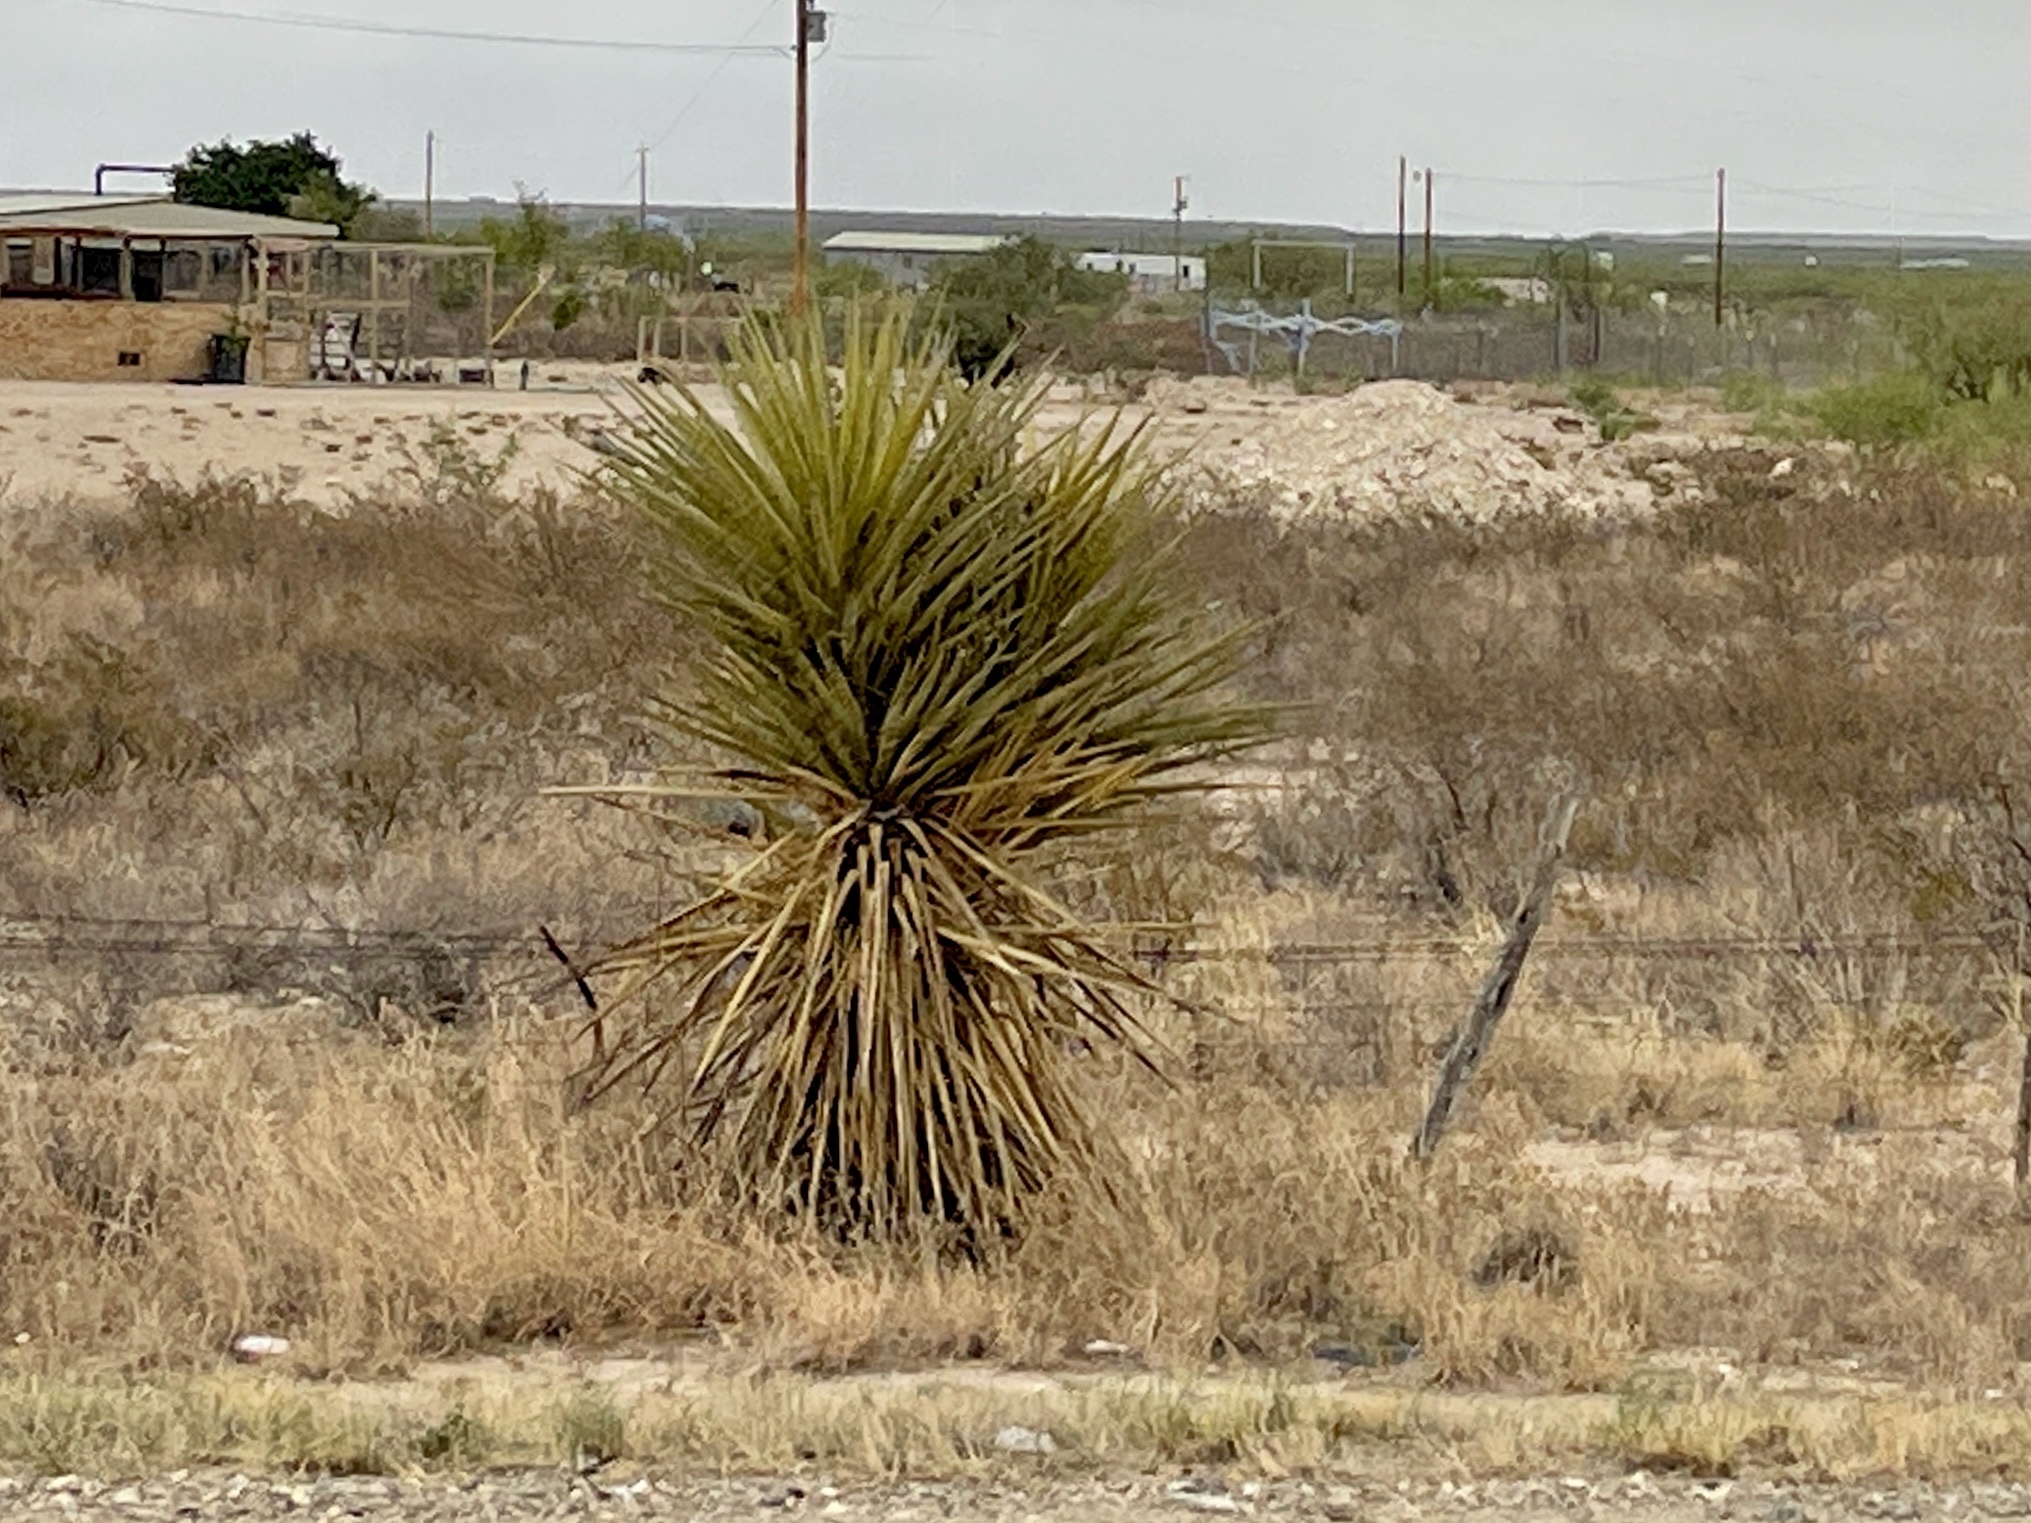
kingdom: Plantae
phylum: Tracheophyta
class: Liliopsida
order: Asparagales
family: Asparagaceae
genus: Yucca
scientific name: Yucca treculiana
